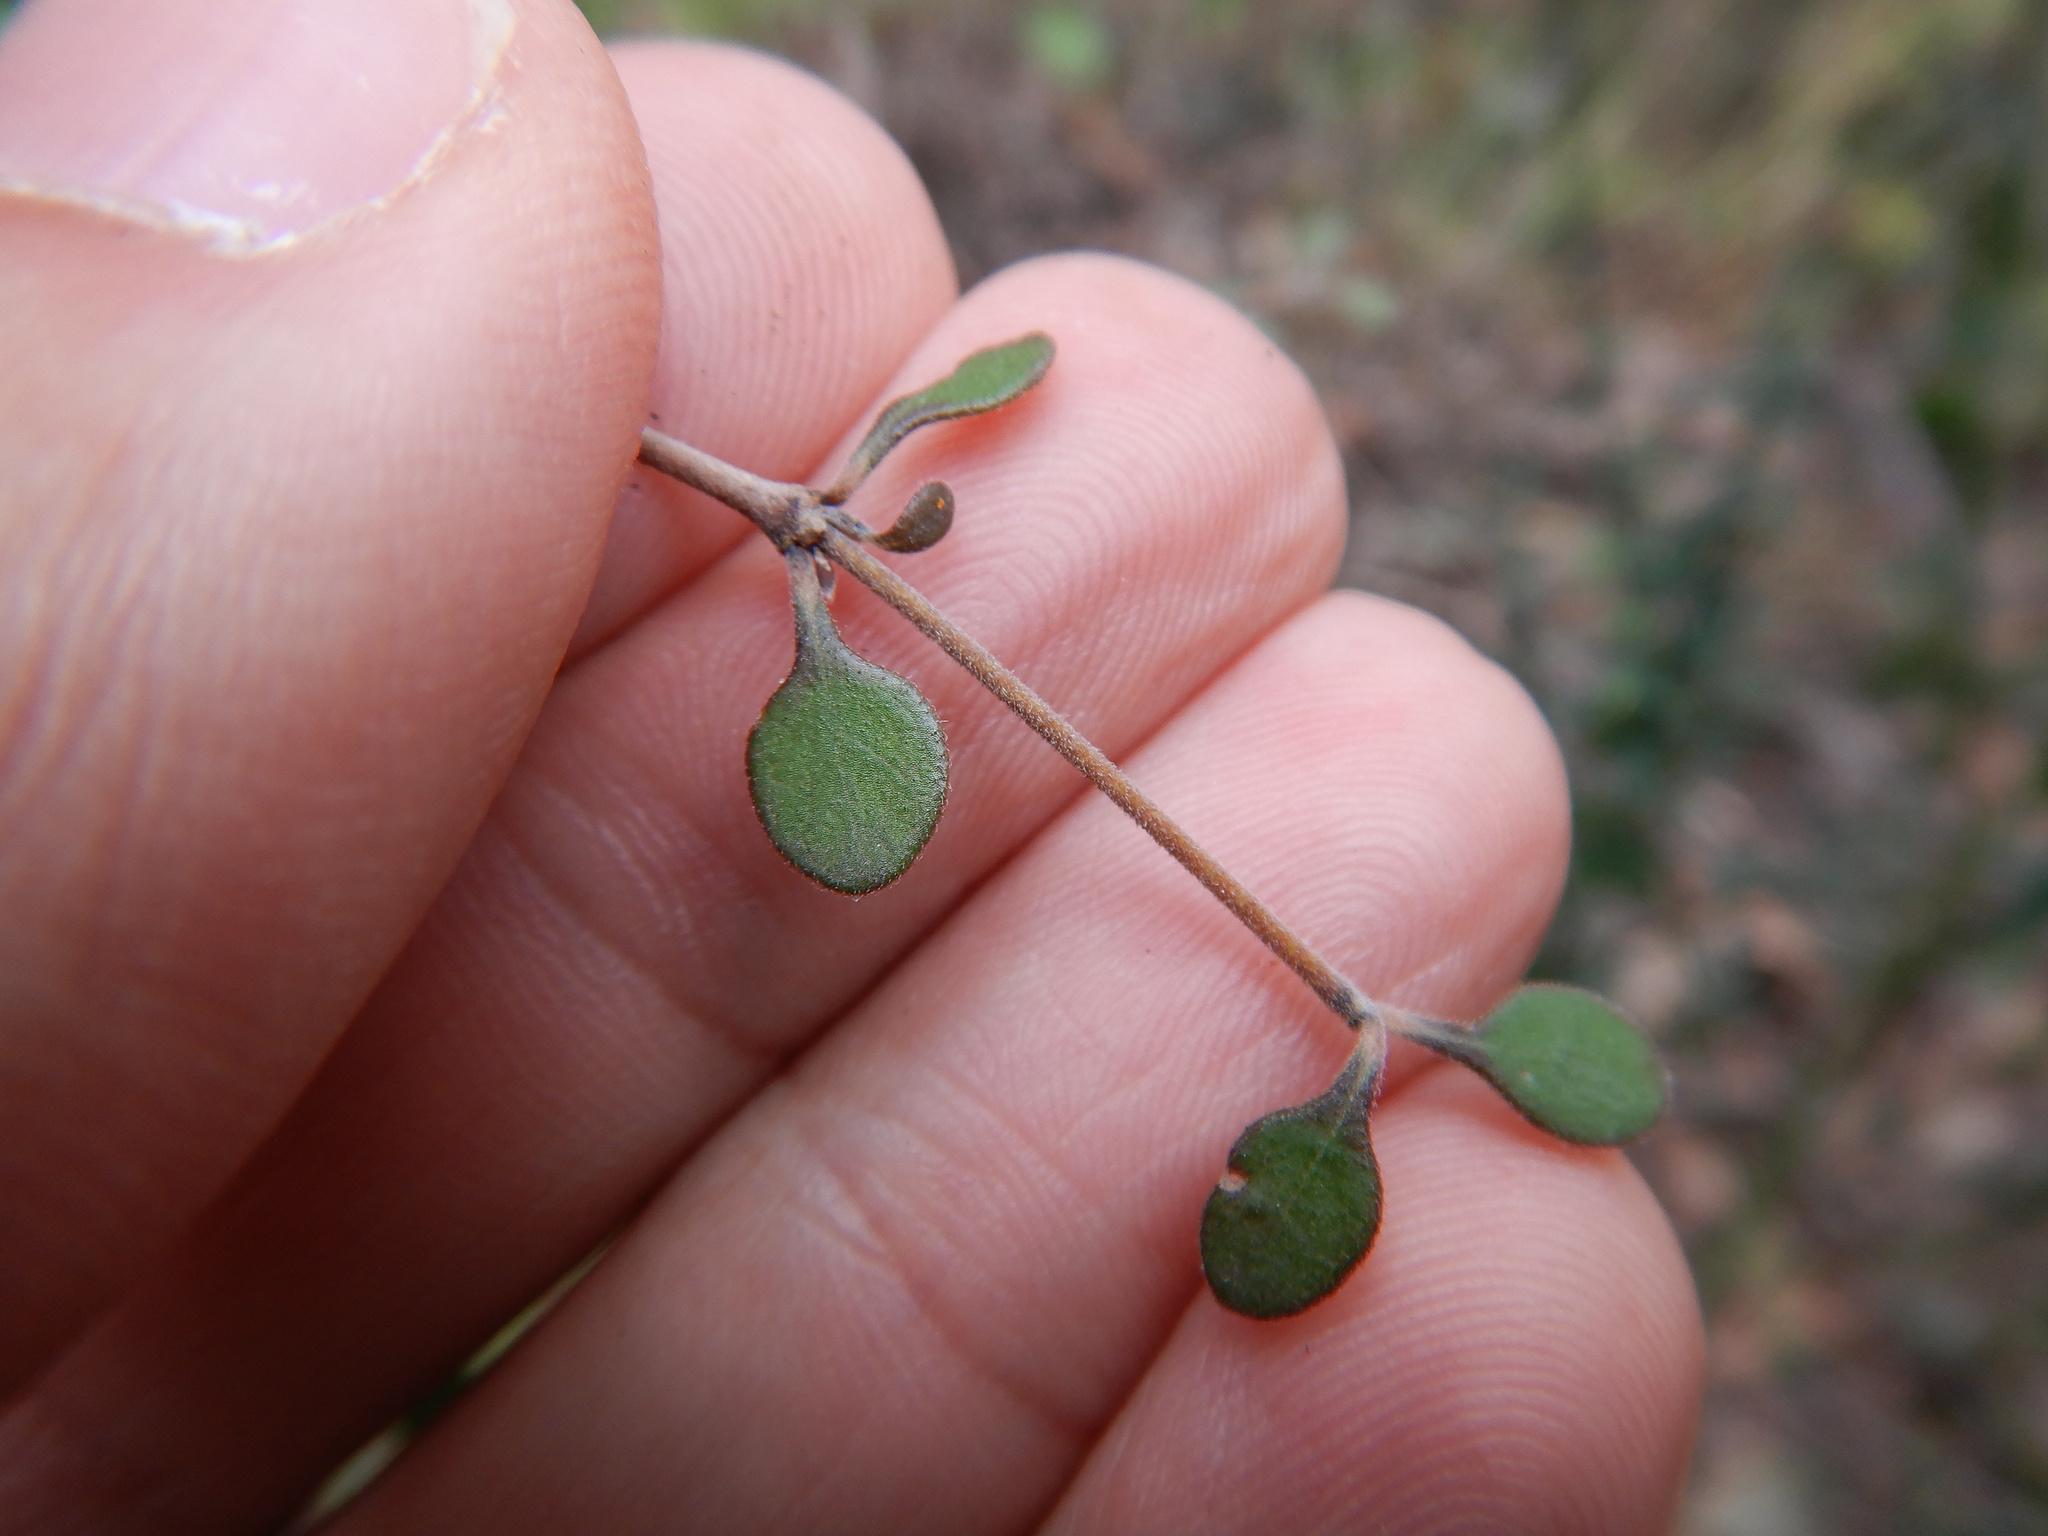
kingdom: Plantae
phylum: Tracheophyta
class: Magnoliopsida
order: Gentianales
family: Rubiaceae
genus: Coprosma
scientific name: Coprosma crassifolia
